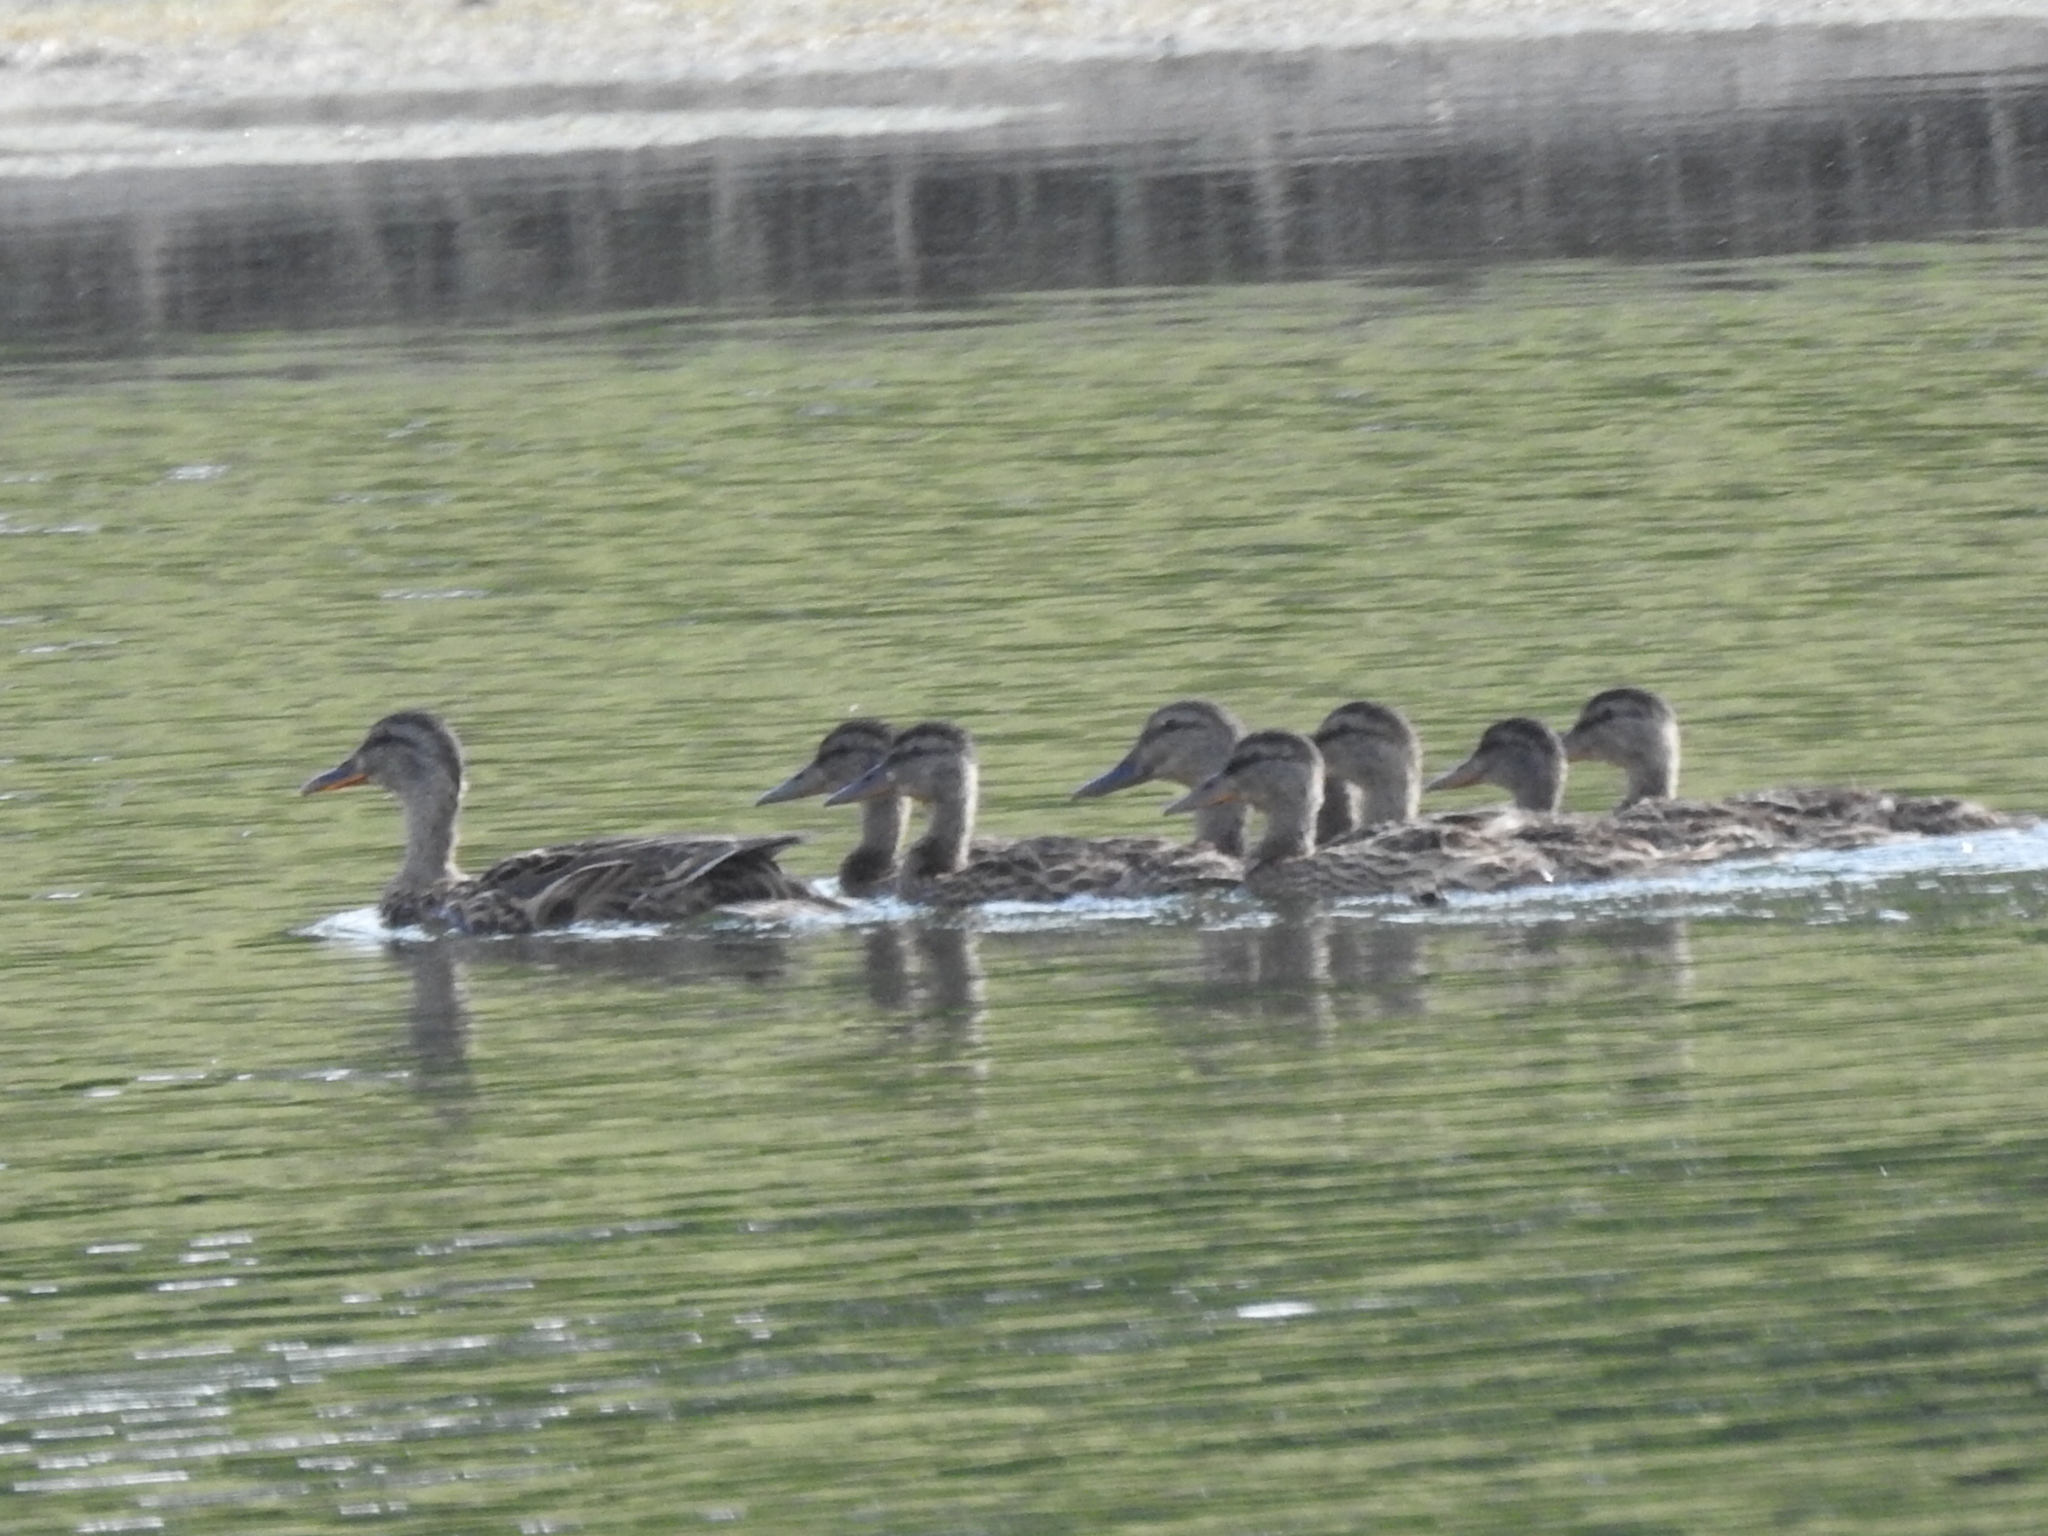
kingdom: Animalia
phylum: Chordata
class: Aves
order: Anseriformes
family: Anatidae
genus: Anas
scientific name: Anas platyrhynchos
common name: Mallard
